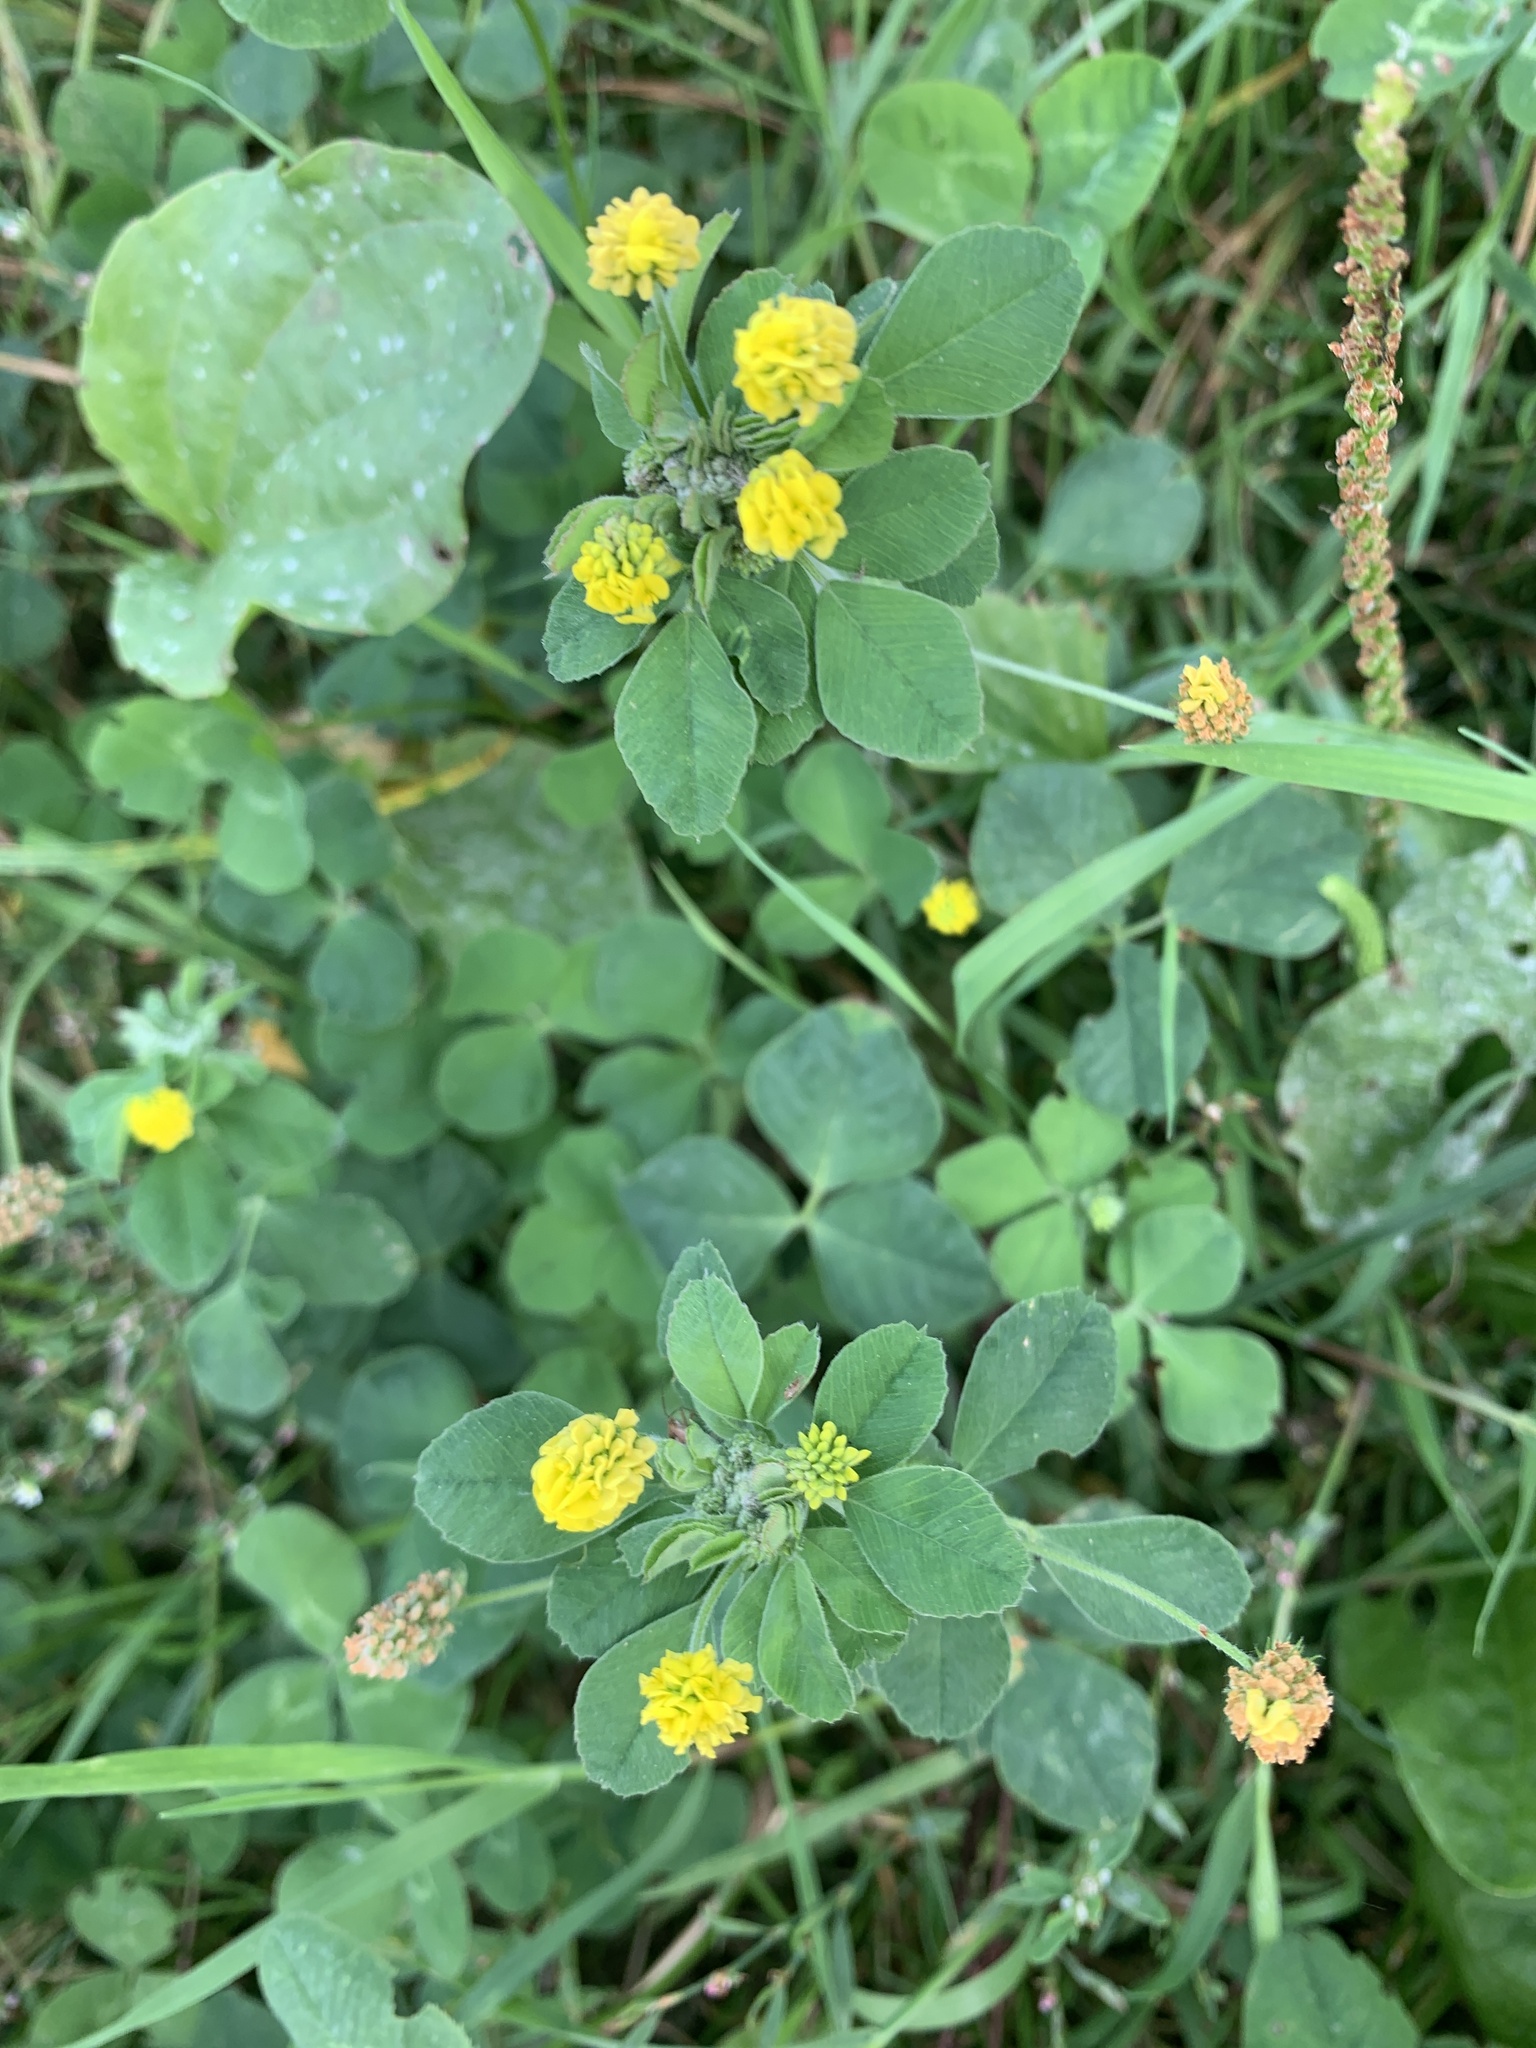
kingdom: Plantae
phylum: Tracheophyta
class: Magnoliopsida
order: Fabales
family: Fabaceae
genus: Medicago
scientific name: Medicago lupulina
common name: Black medick
